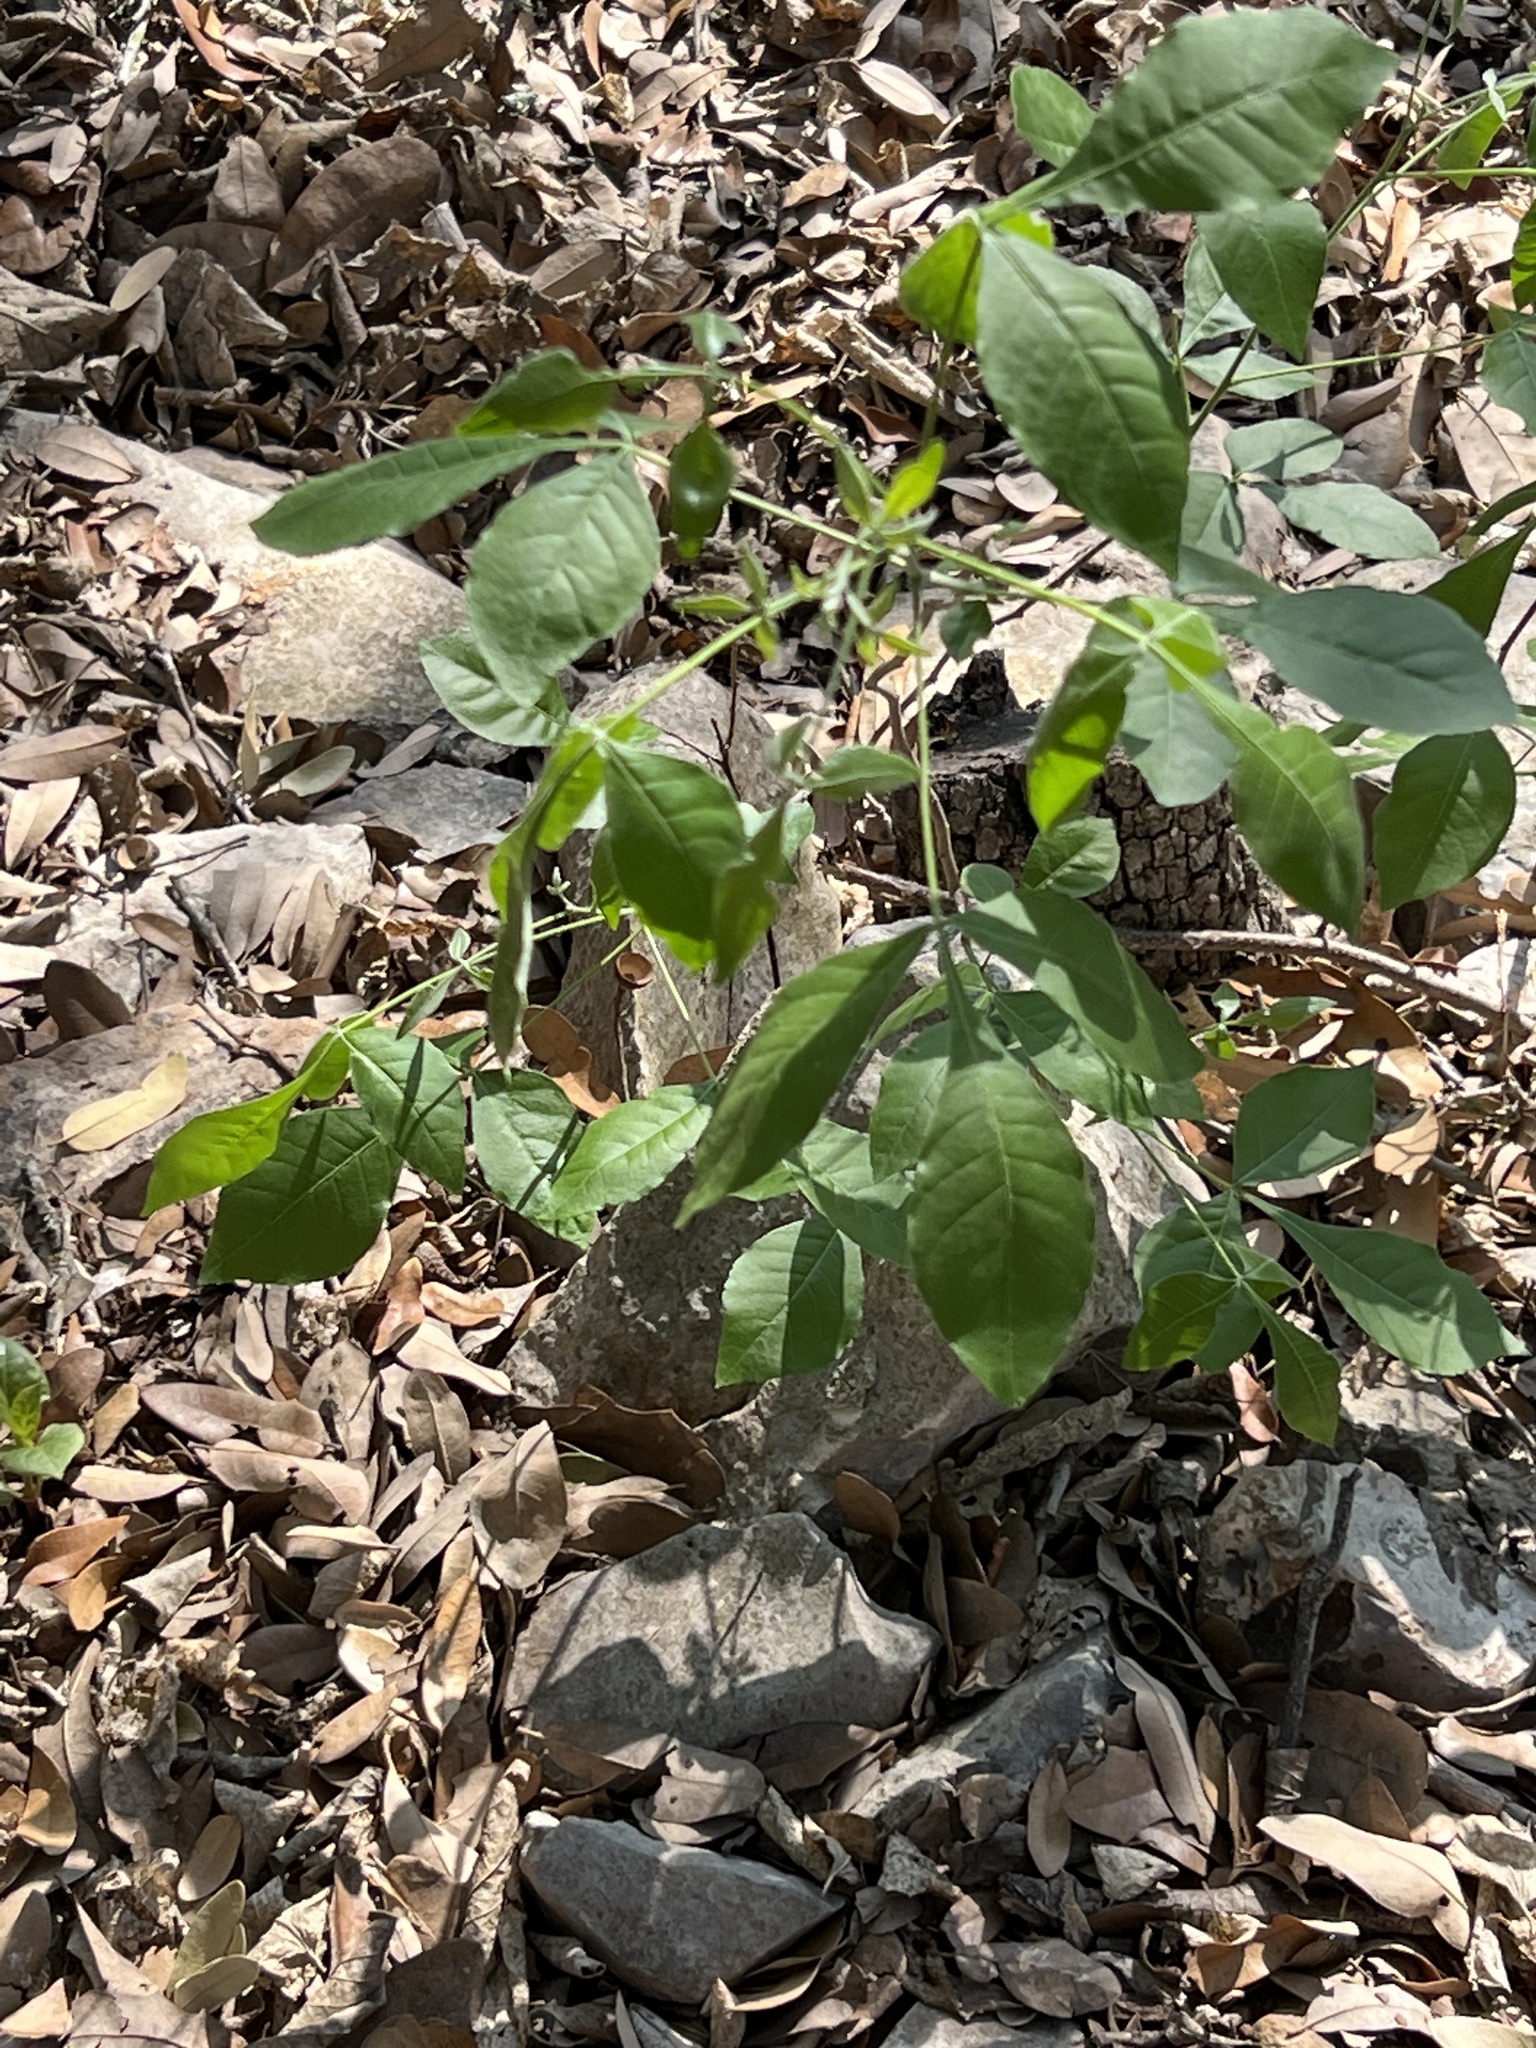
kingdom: Plantae
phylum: Tracheophyta
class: Magnoliopsida
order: Sapindales
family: Rutaceae
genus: Ptelea
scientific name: Ptelea trifoliata
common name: Common hop-tree
